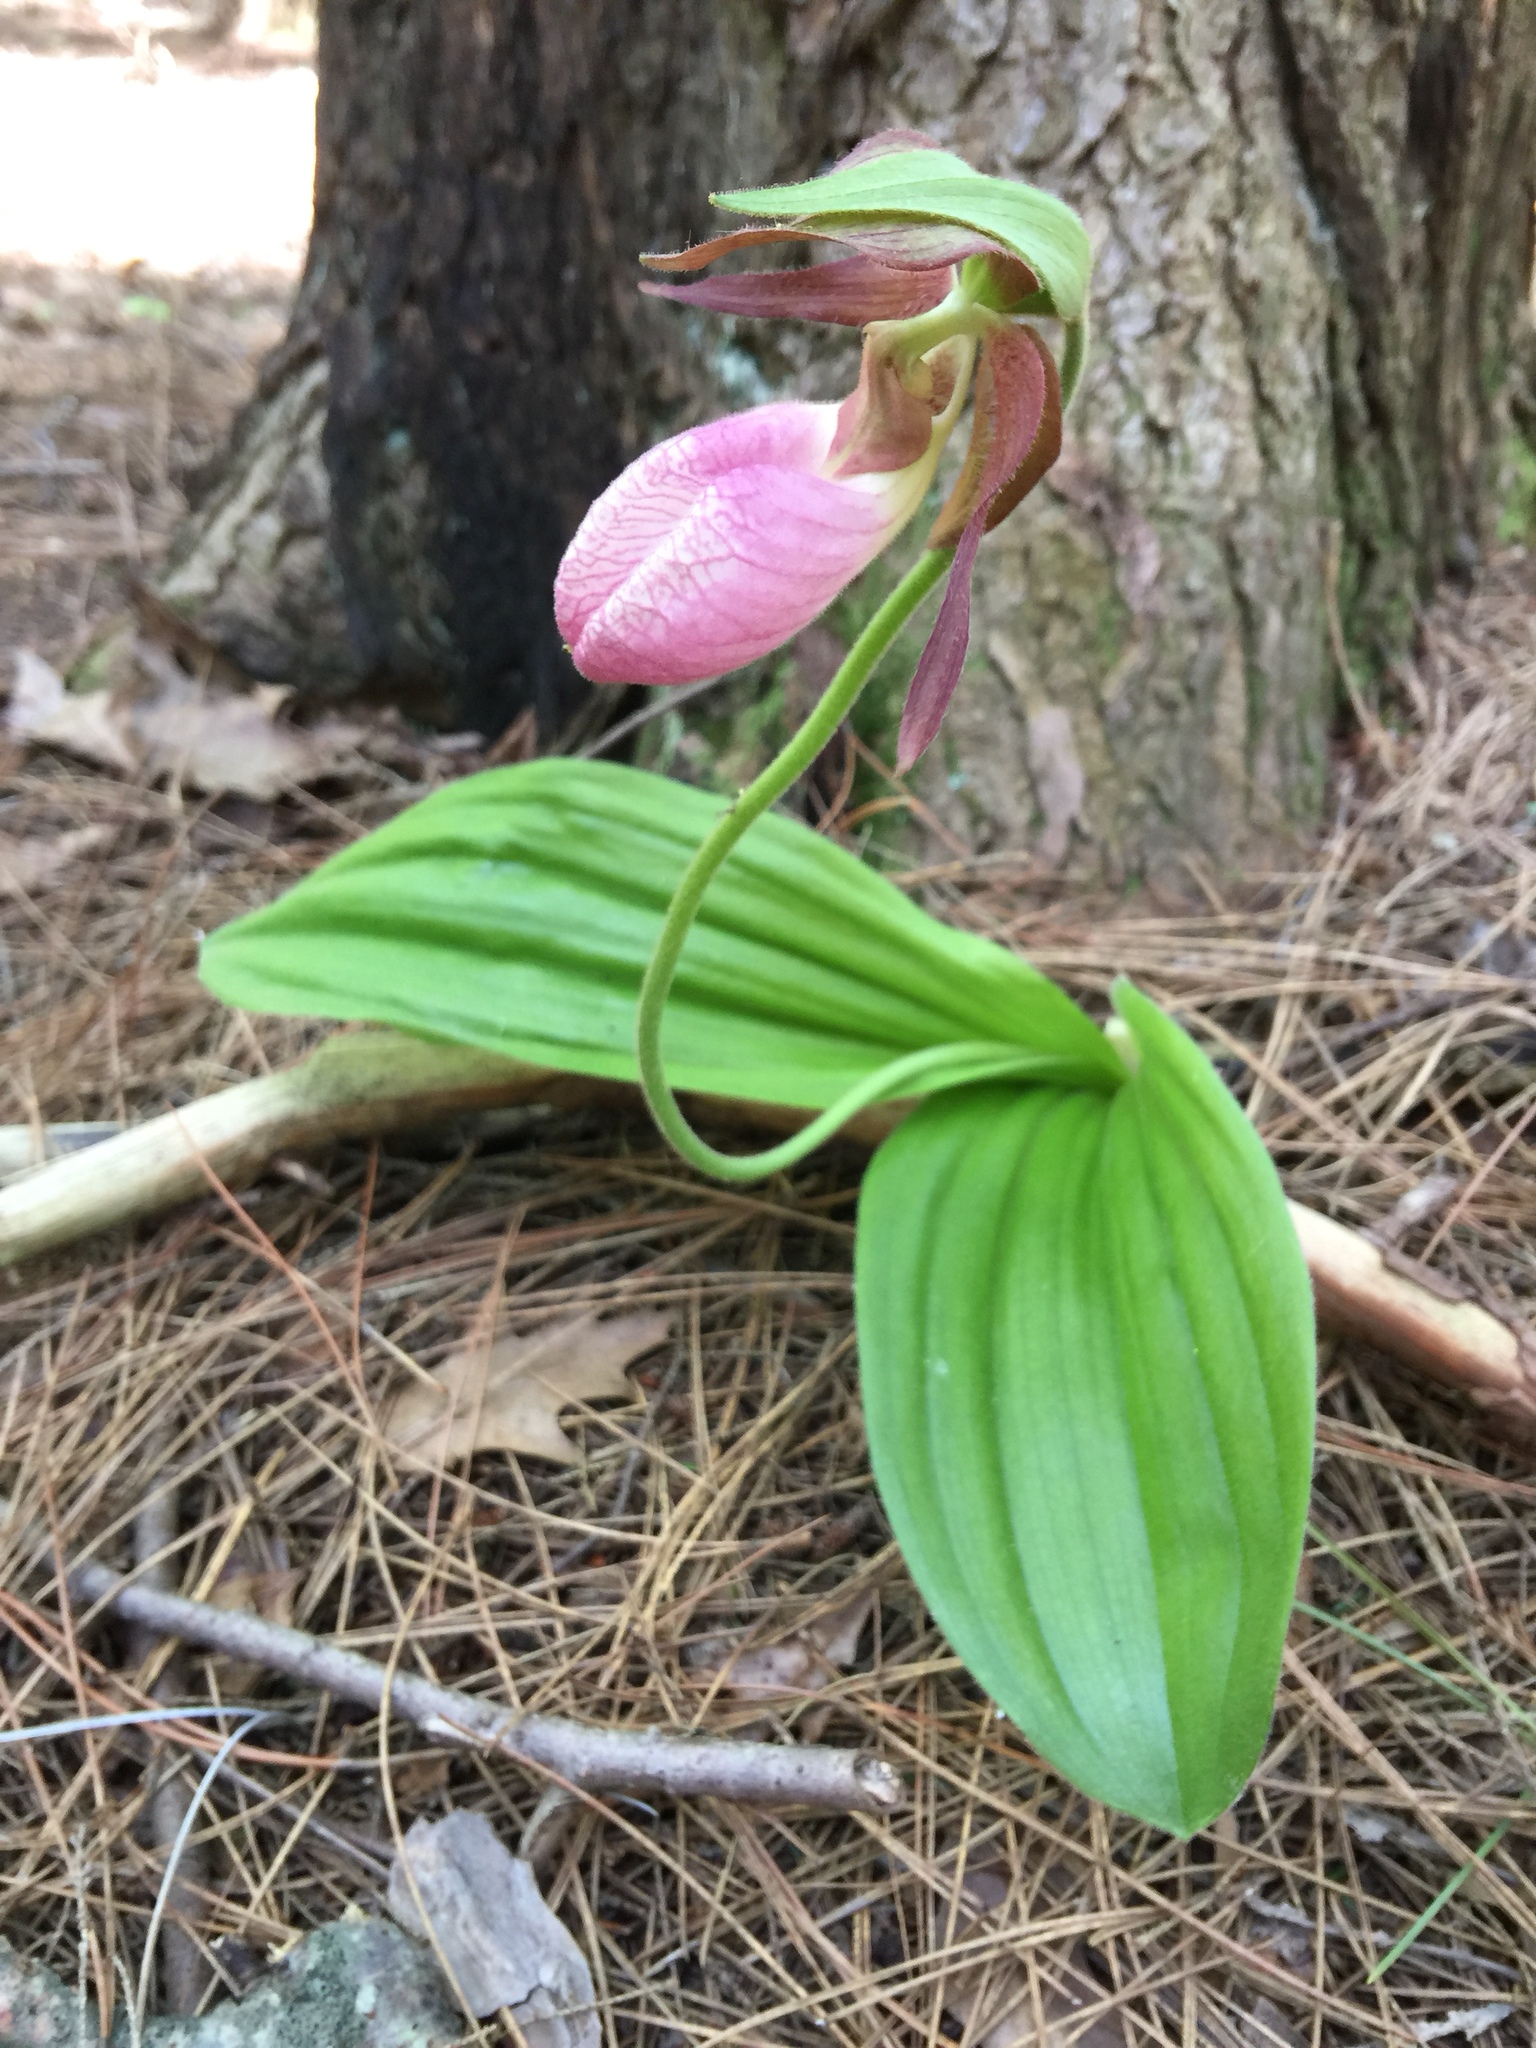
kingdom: Plantae
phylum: Tracheophyta
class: Liliopsida
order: Asparagales
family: Orchidaceae
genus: Cypripedium
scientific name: Cypripedium acaule
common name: Pink lady's-slipper
